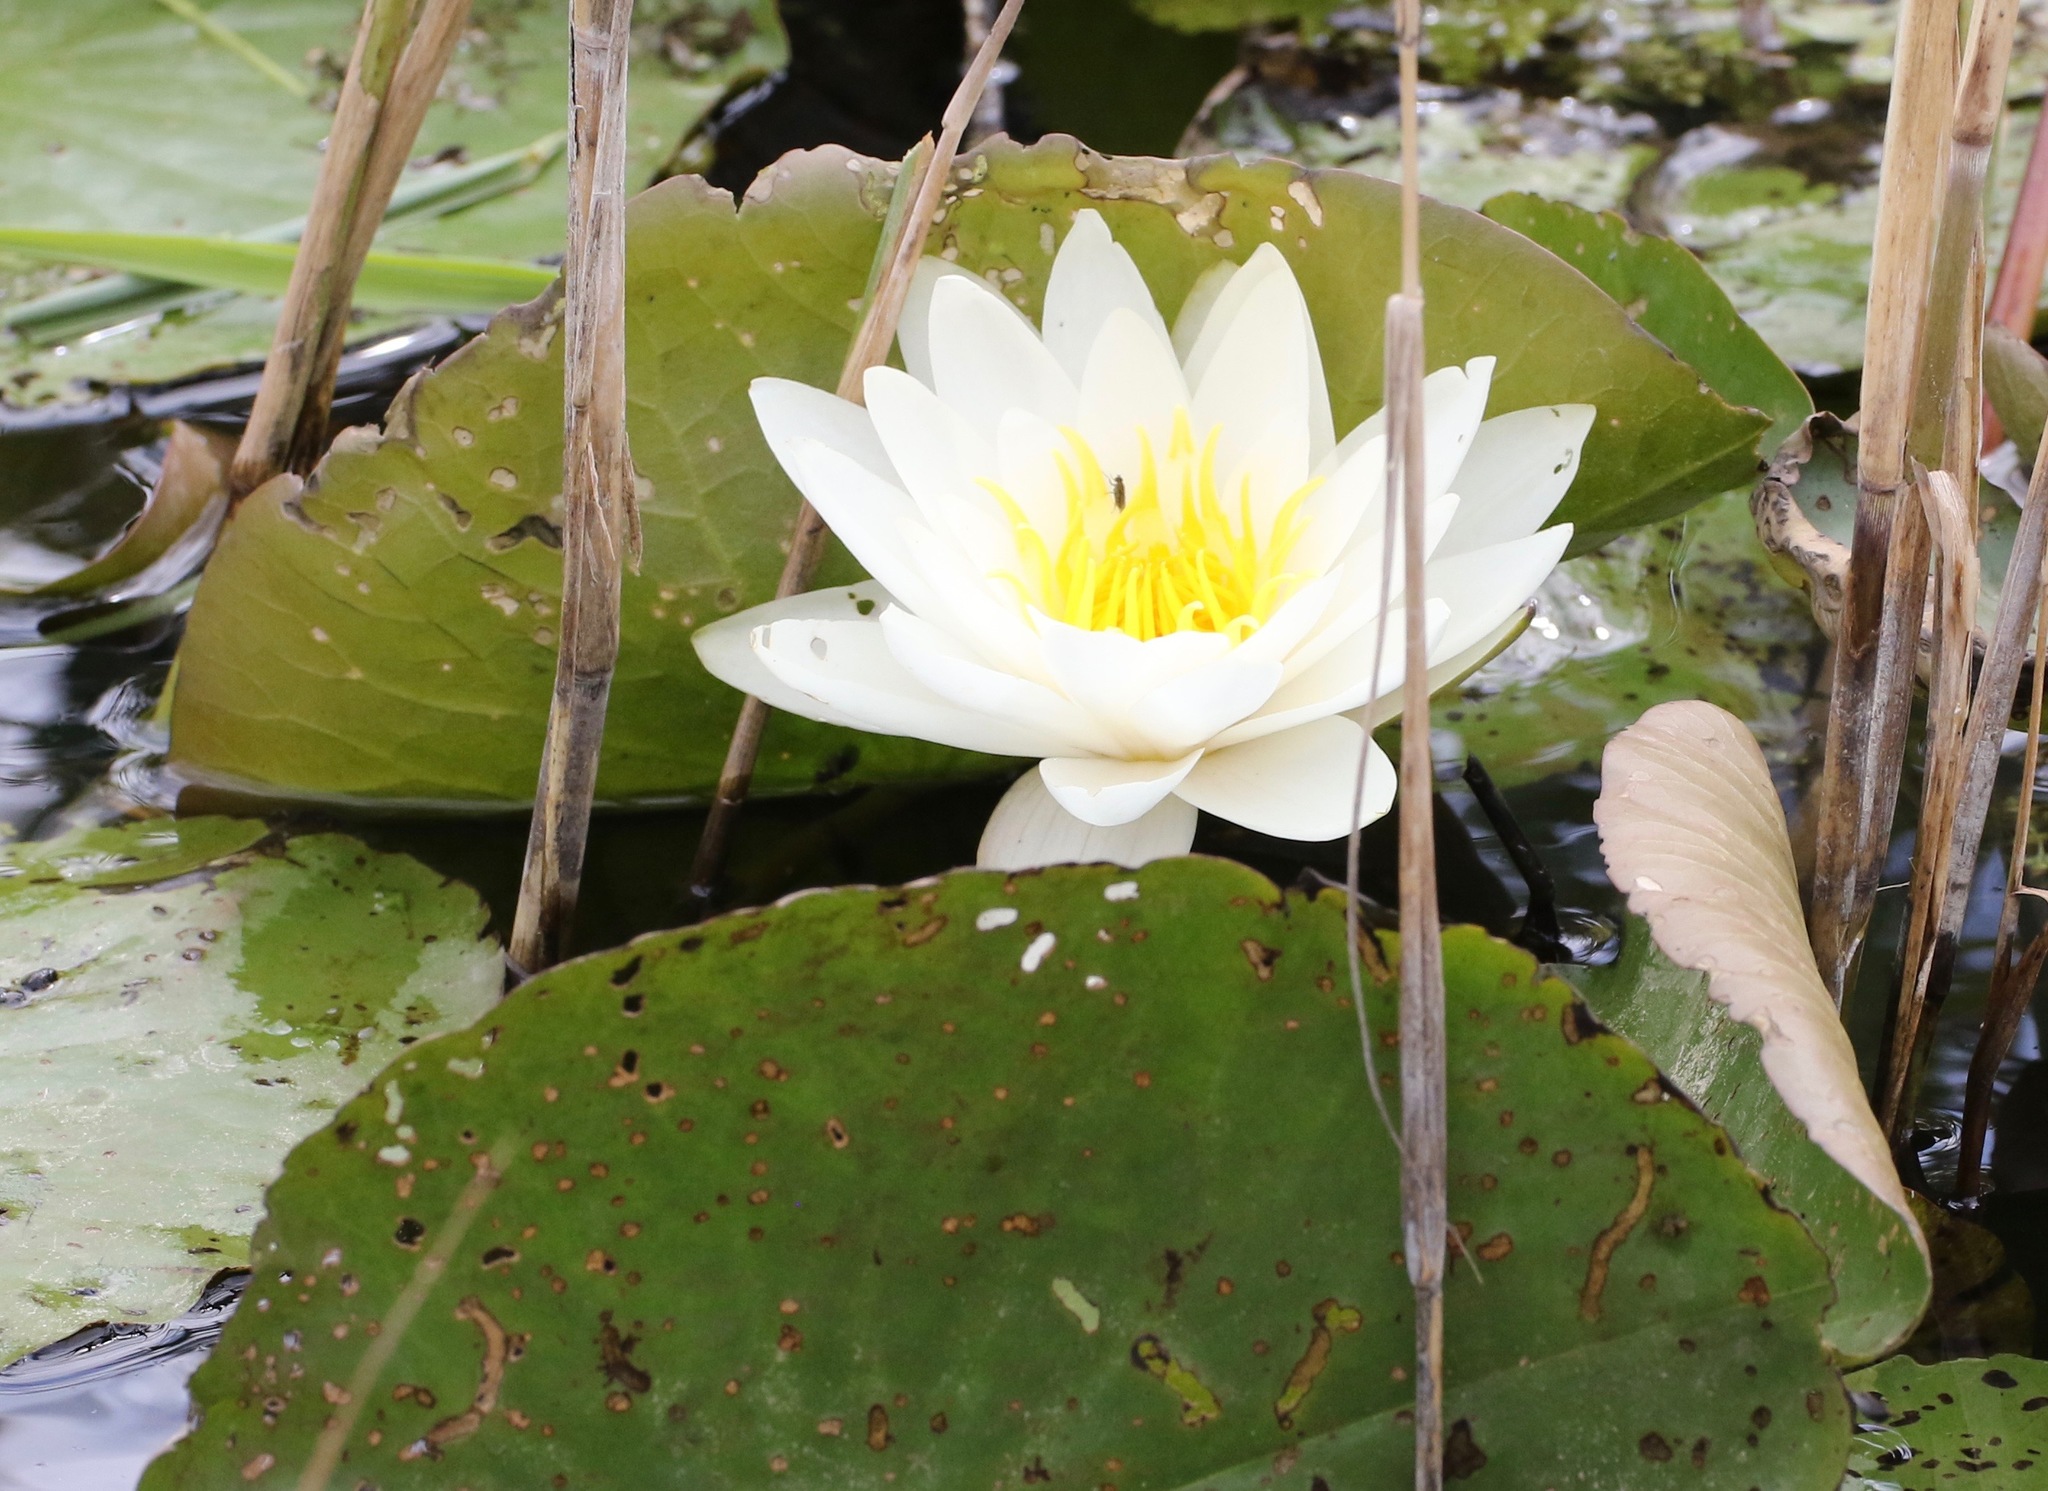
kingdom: Plantae
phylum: Tracheophyta
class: Magnoliopsida
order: Nymphaeales
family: Nymphaeaceae
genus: Nymphaea
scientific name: Nymphaea alba
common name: White water-lily
